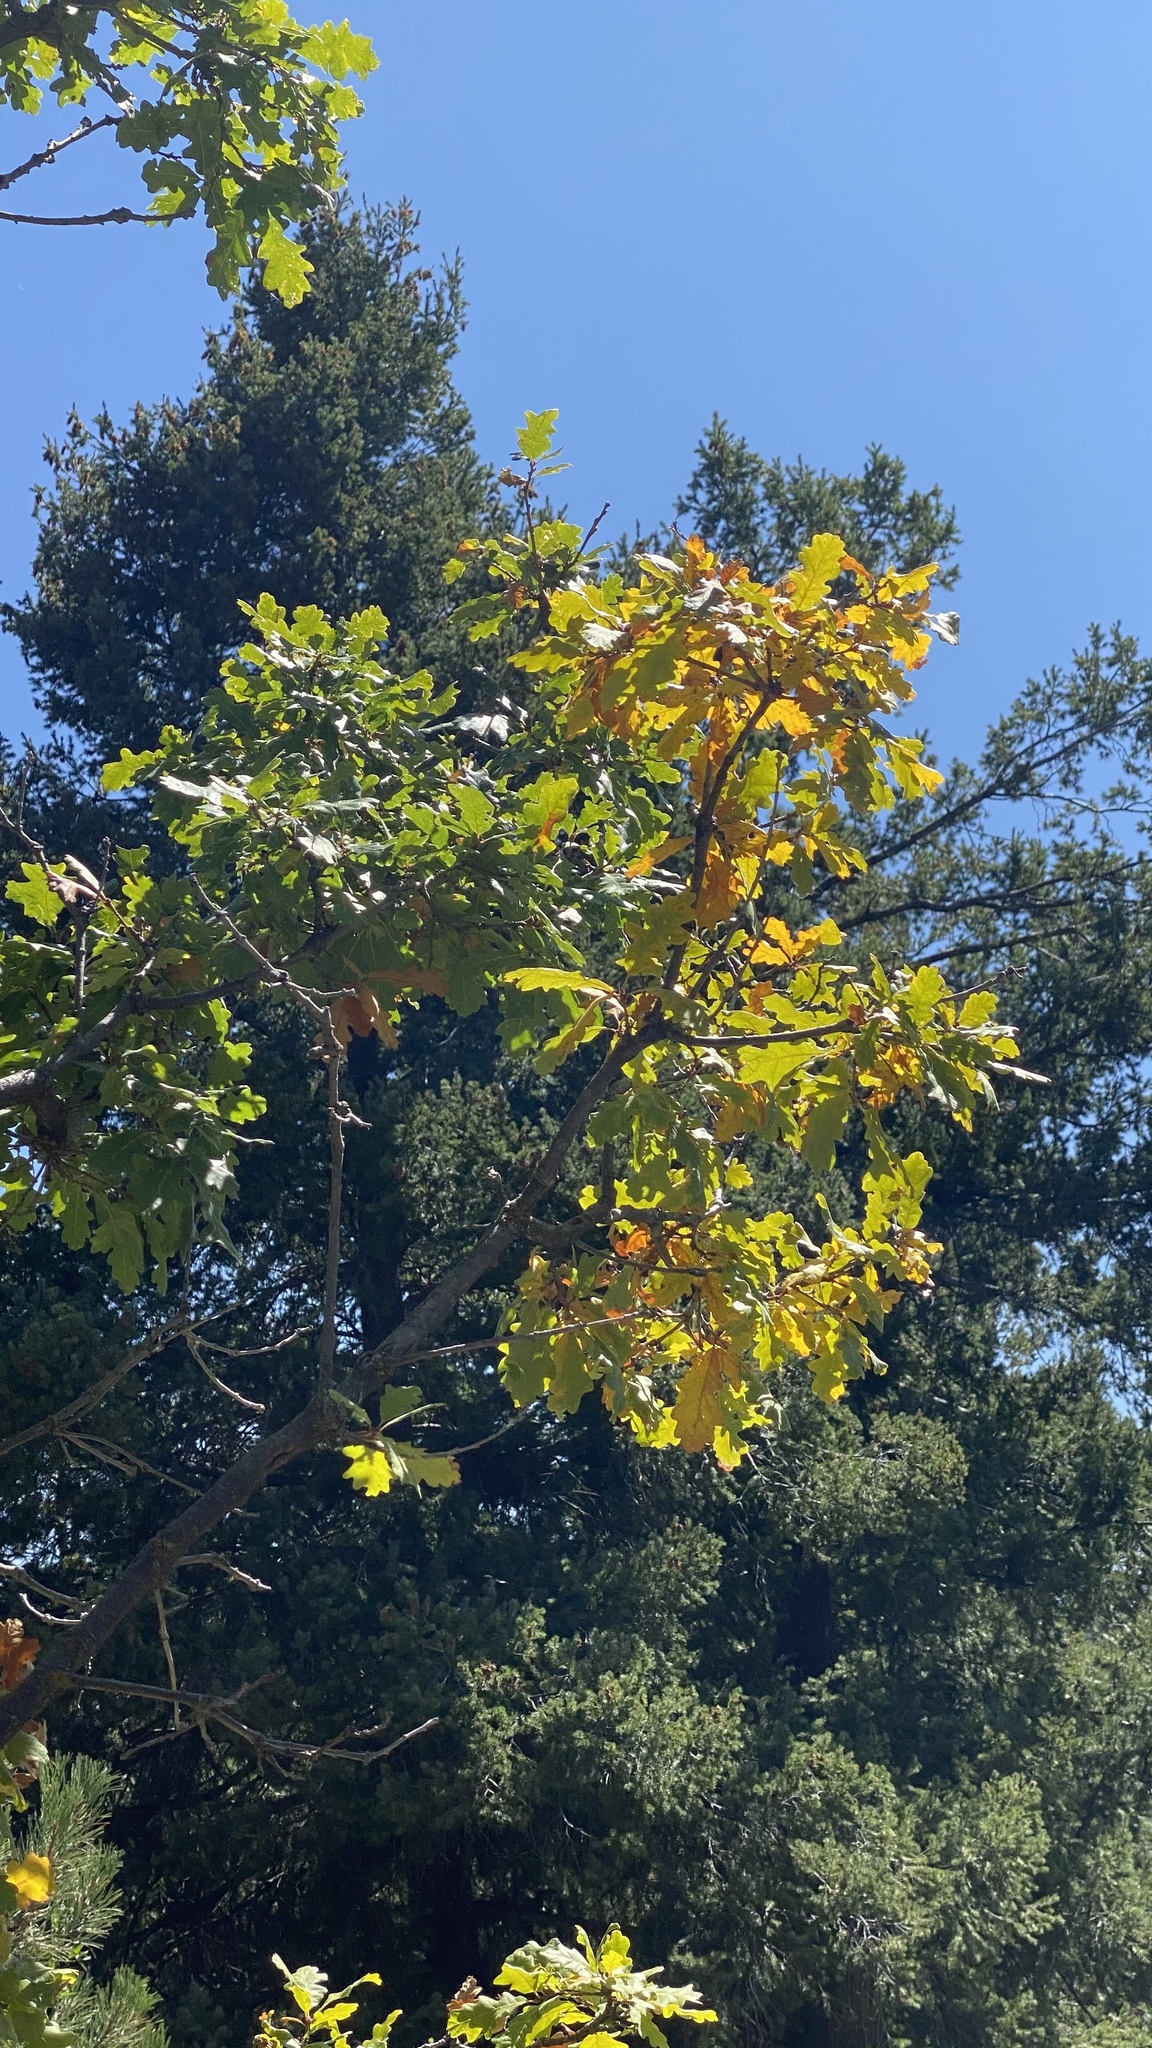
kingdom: Plantae
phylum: Tracheophyta
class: Magnoliopsida
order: Fagales
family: Fagaceae
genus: Quercus
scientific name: Quercus gambelii
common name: Gambel oak
